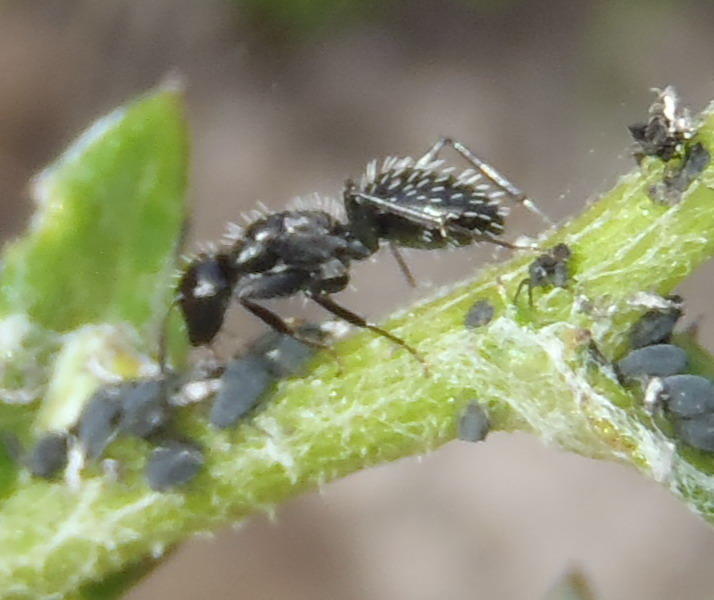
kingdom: Animalia
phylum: Arthropoda
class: Insecta
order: Hymenoptera
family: Formicidae
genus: Camponotus
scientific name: Camponotus niveosetosus
